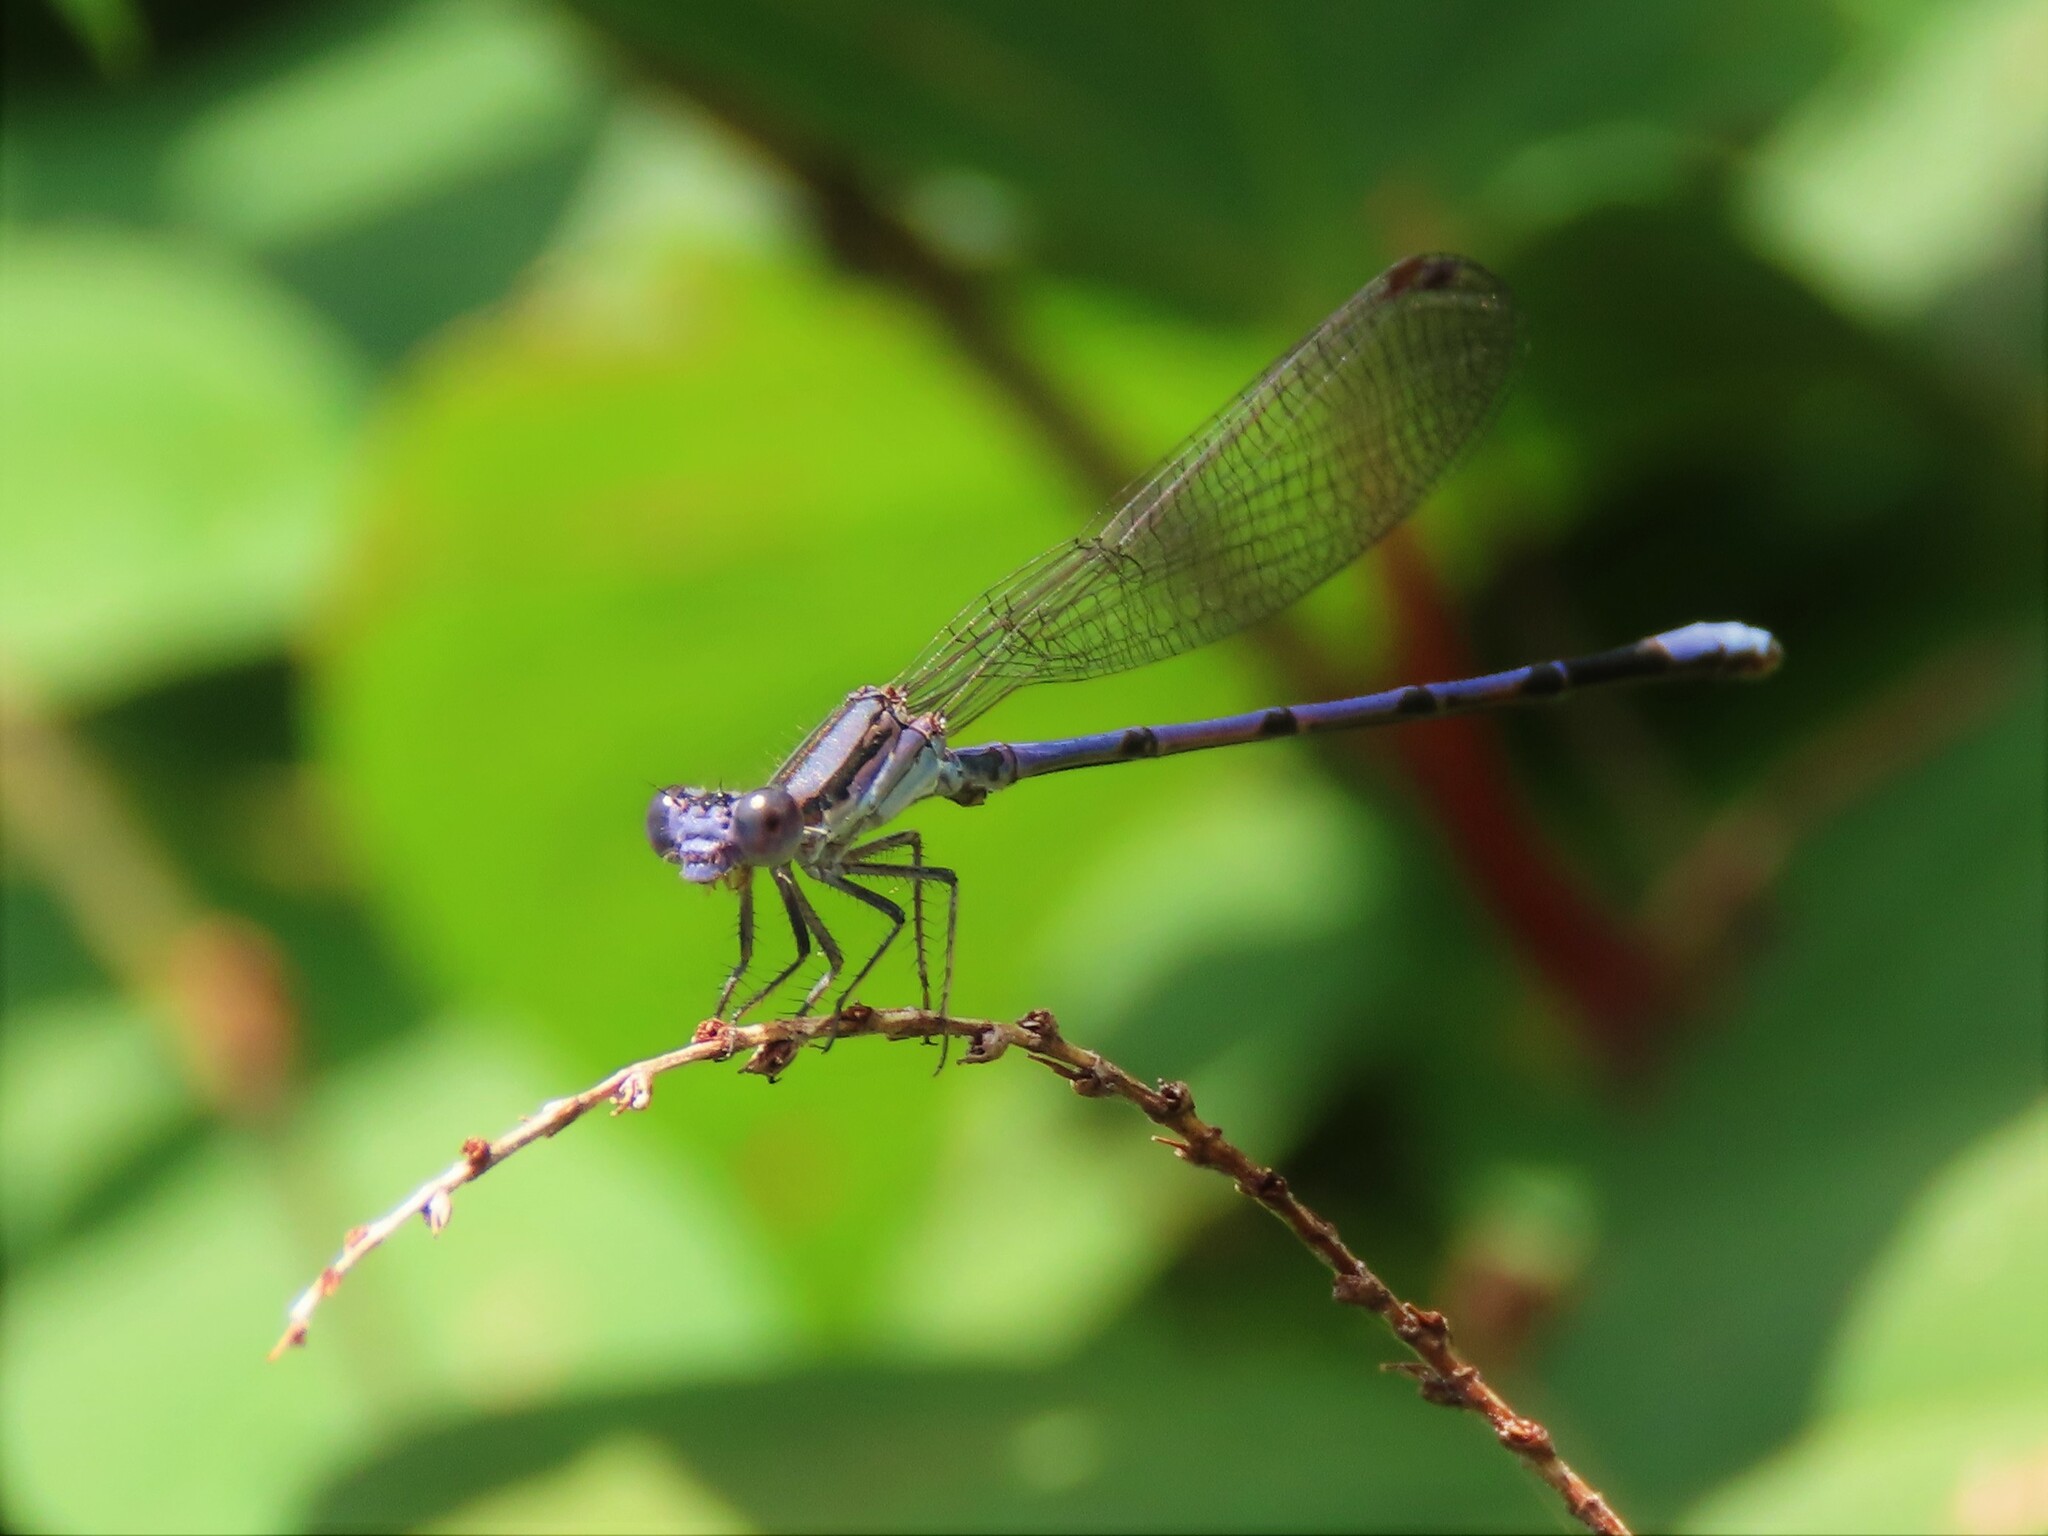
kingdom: Animalia
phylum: Arthropoda
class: Insecta
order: Odonata
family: Coenagrionidae
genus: Argia
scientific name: Argia fumipennis
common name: Variable dancer
